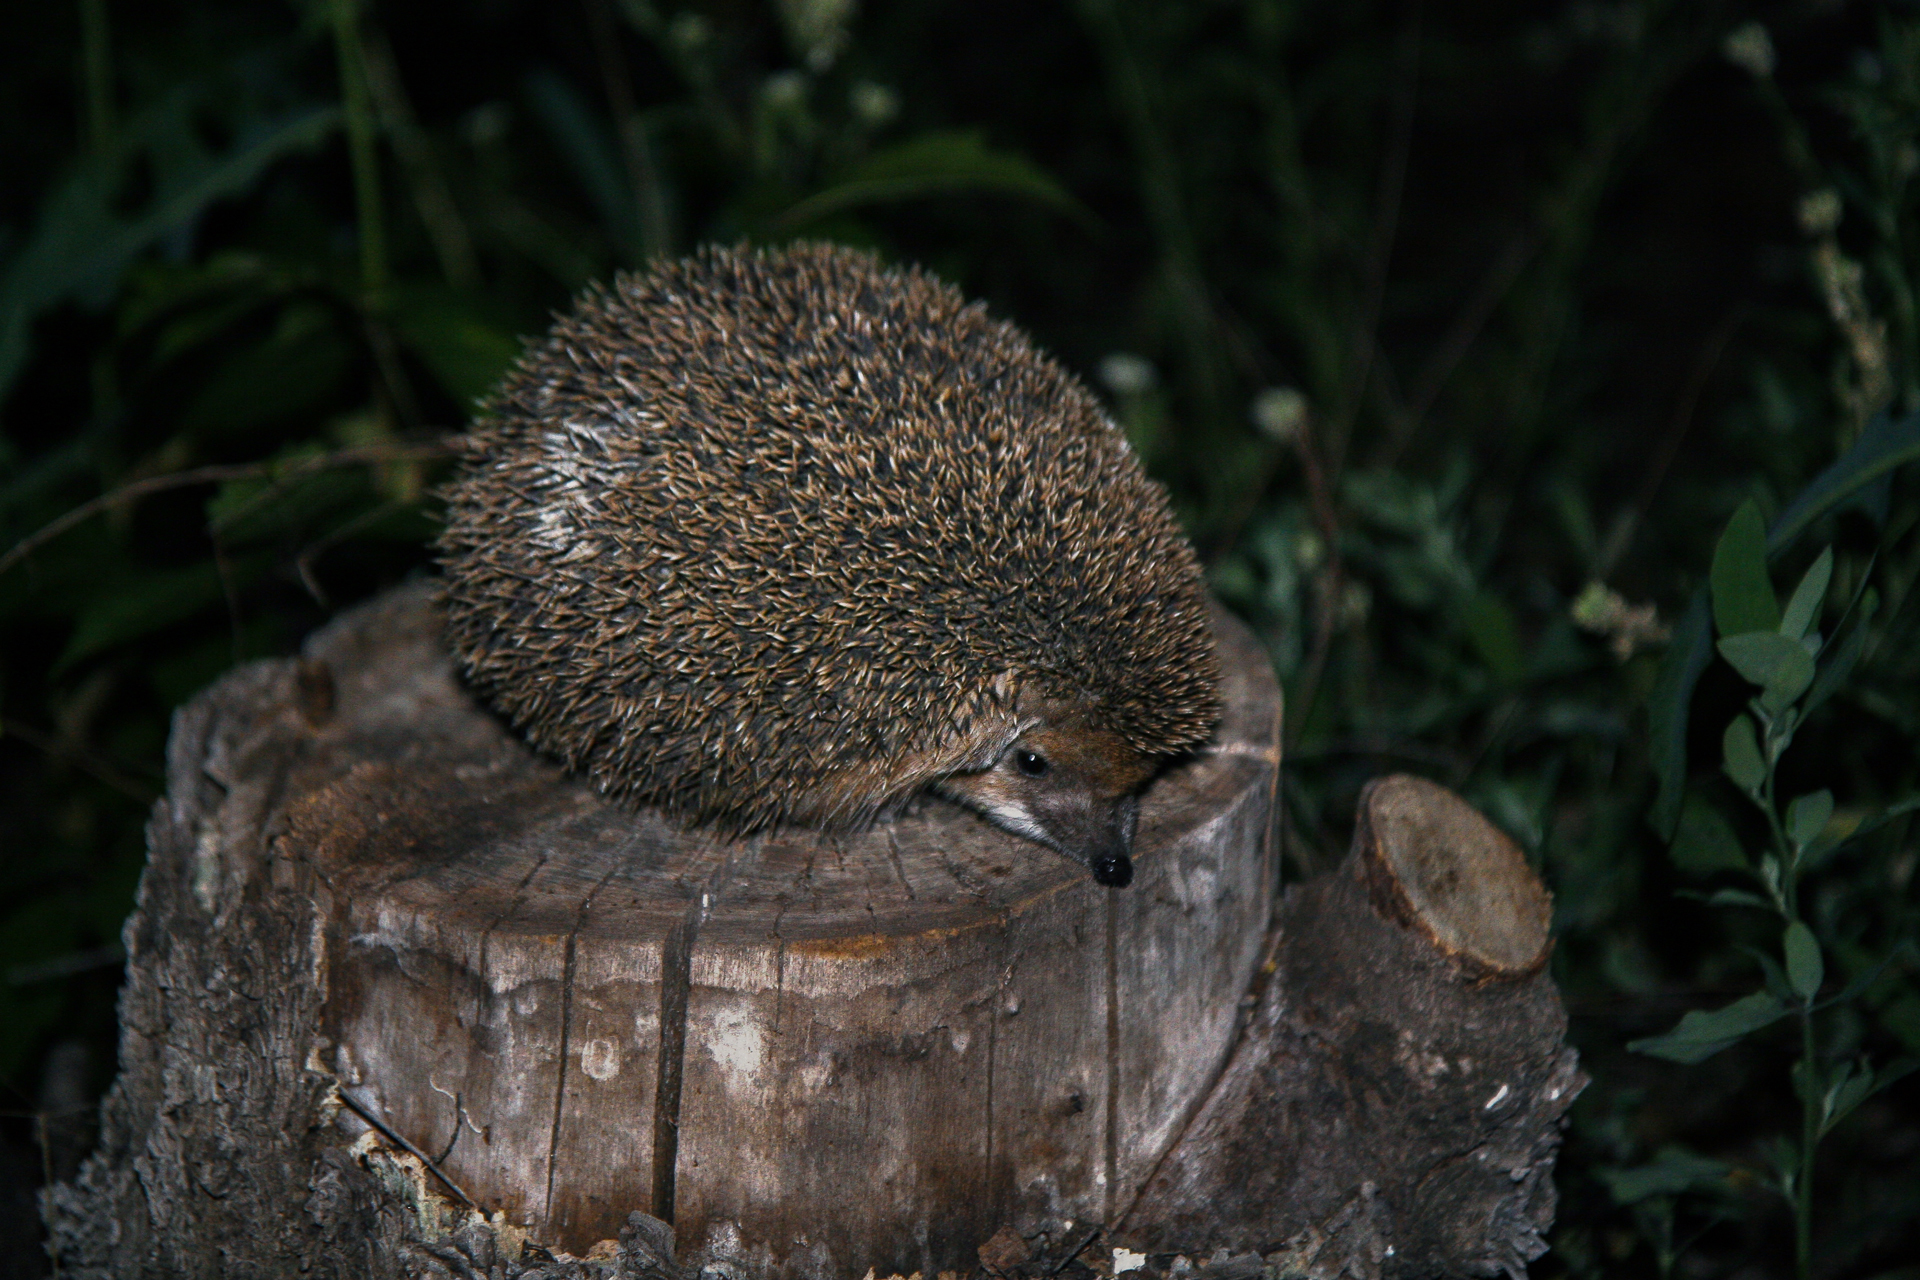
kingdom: Animalia
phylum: Chordata
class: Mammalia
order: Erinaceomorpha
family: Erinaceidae
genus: Hemiechinus
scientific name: Hemiechinus auritus
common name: Long-eared hedgehog
